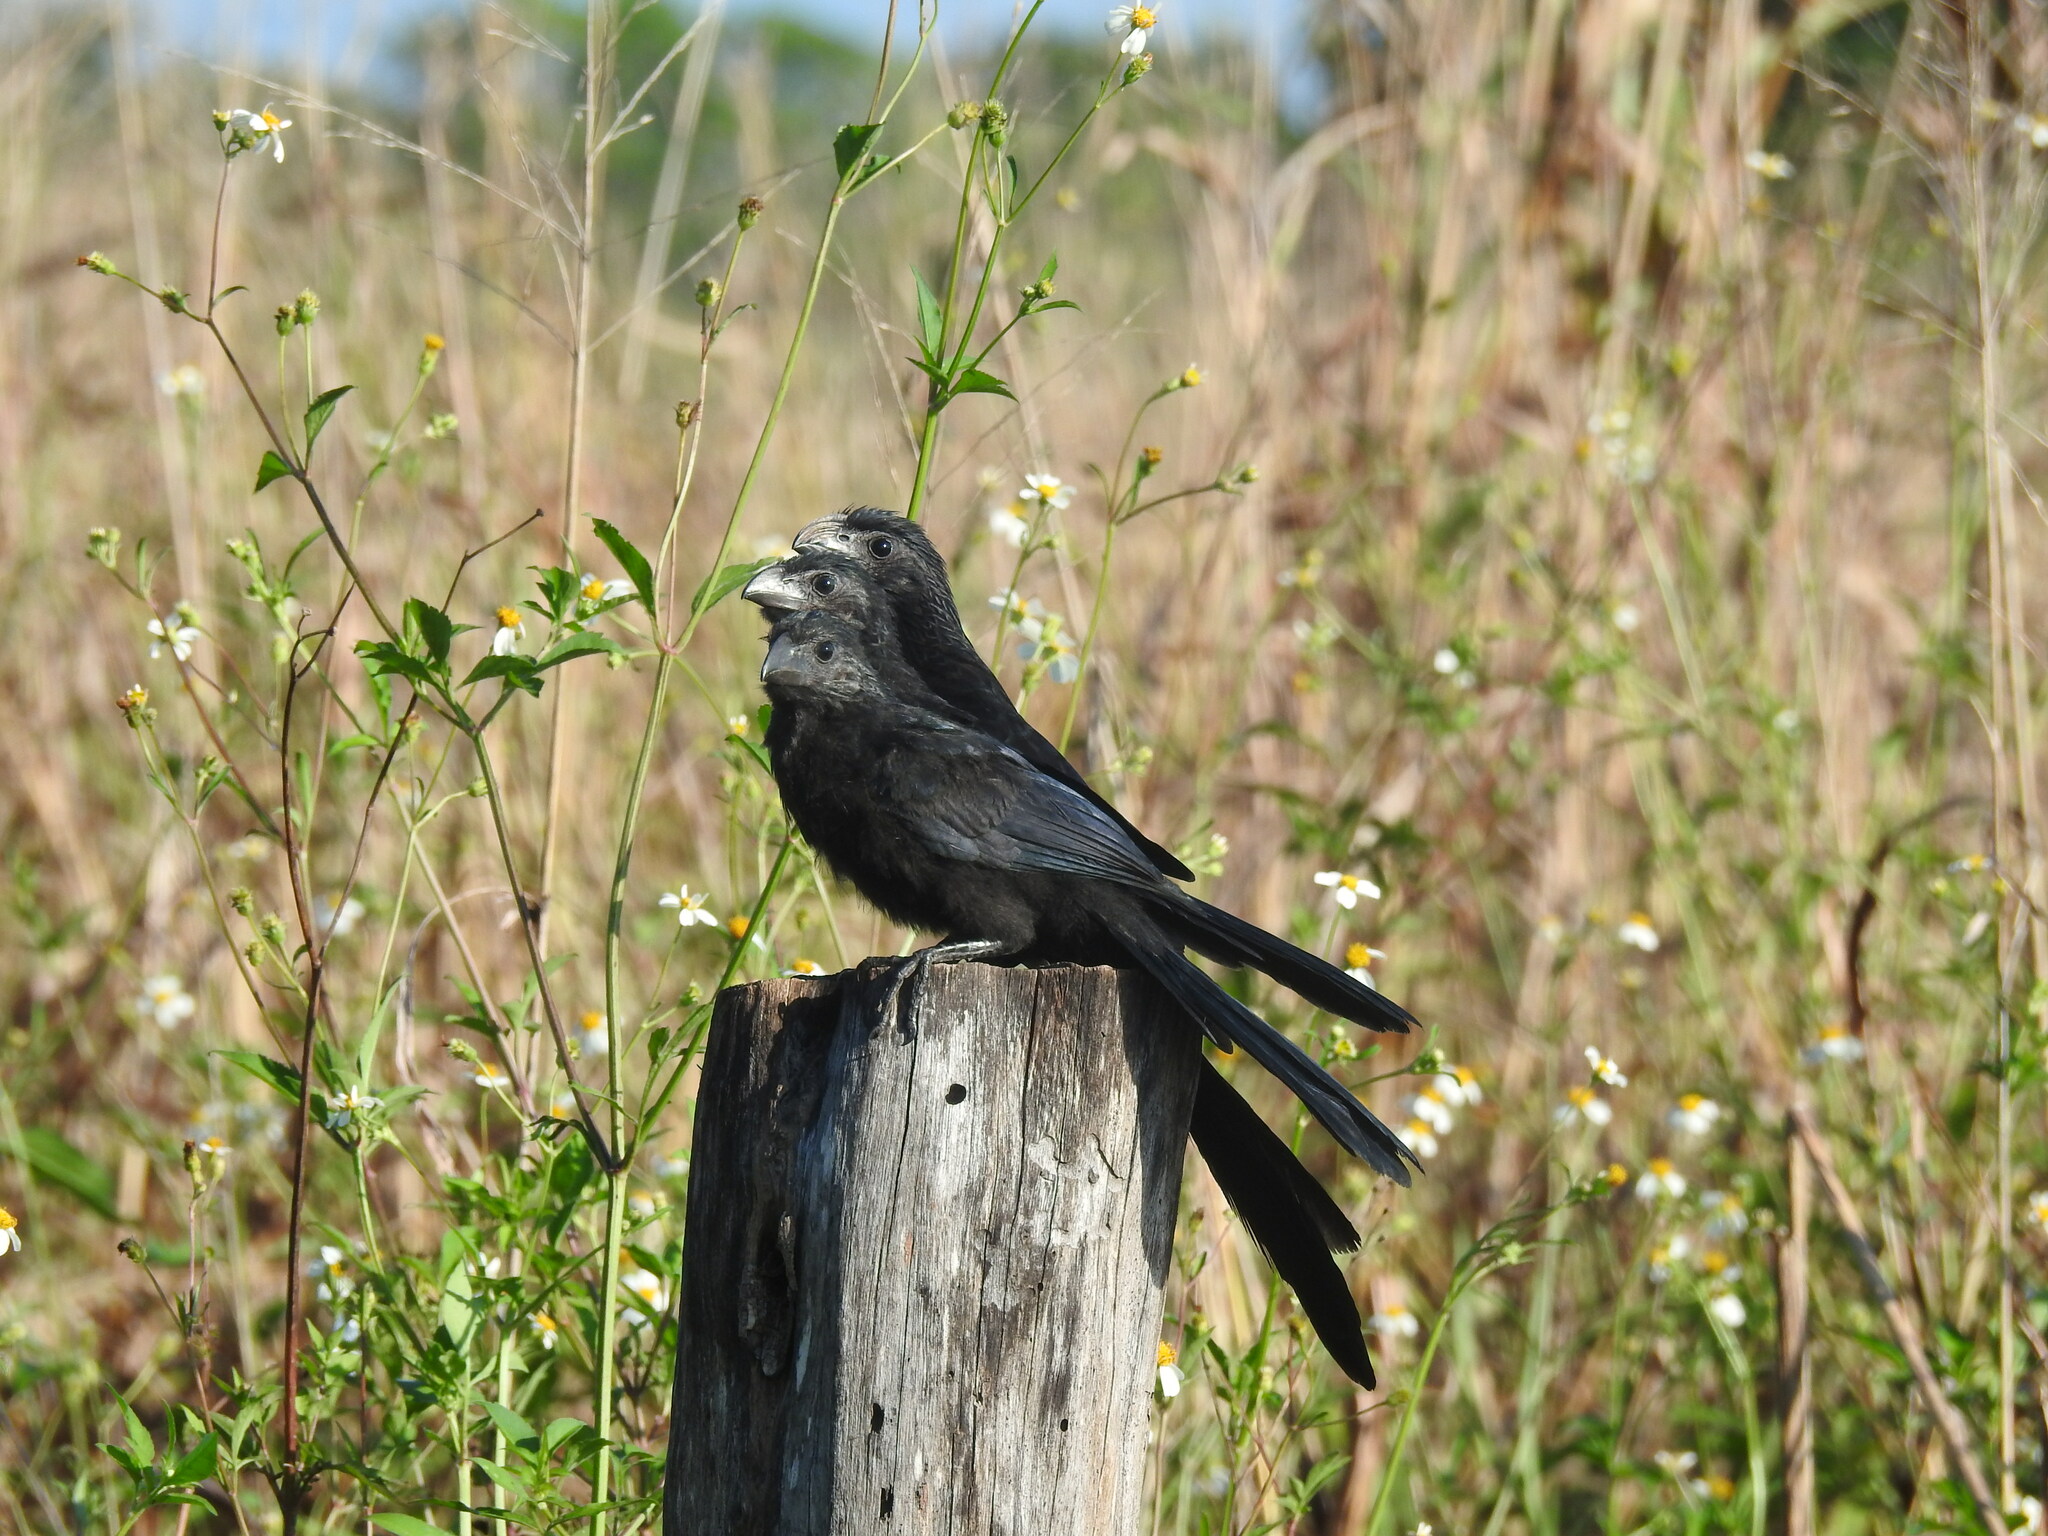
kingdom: Animalia
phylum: Chordata
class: Aves
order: Cuculiformes
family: Cuculidae
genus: Crotophaga
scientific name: Crotophaga sulcirostris
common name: Groove-billed ani
